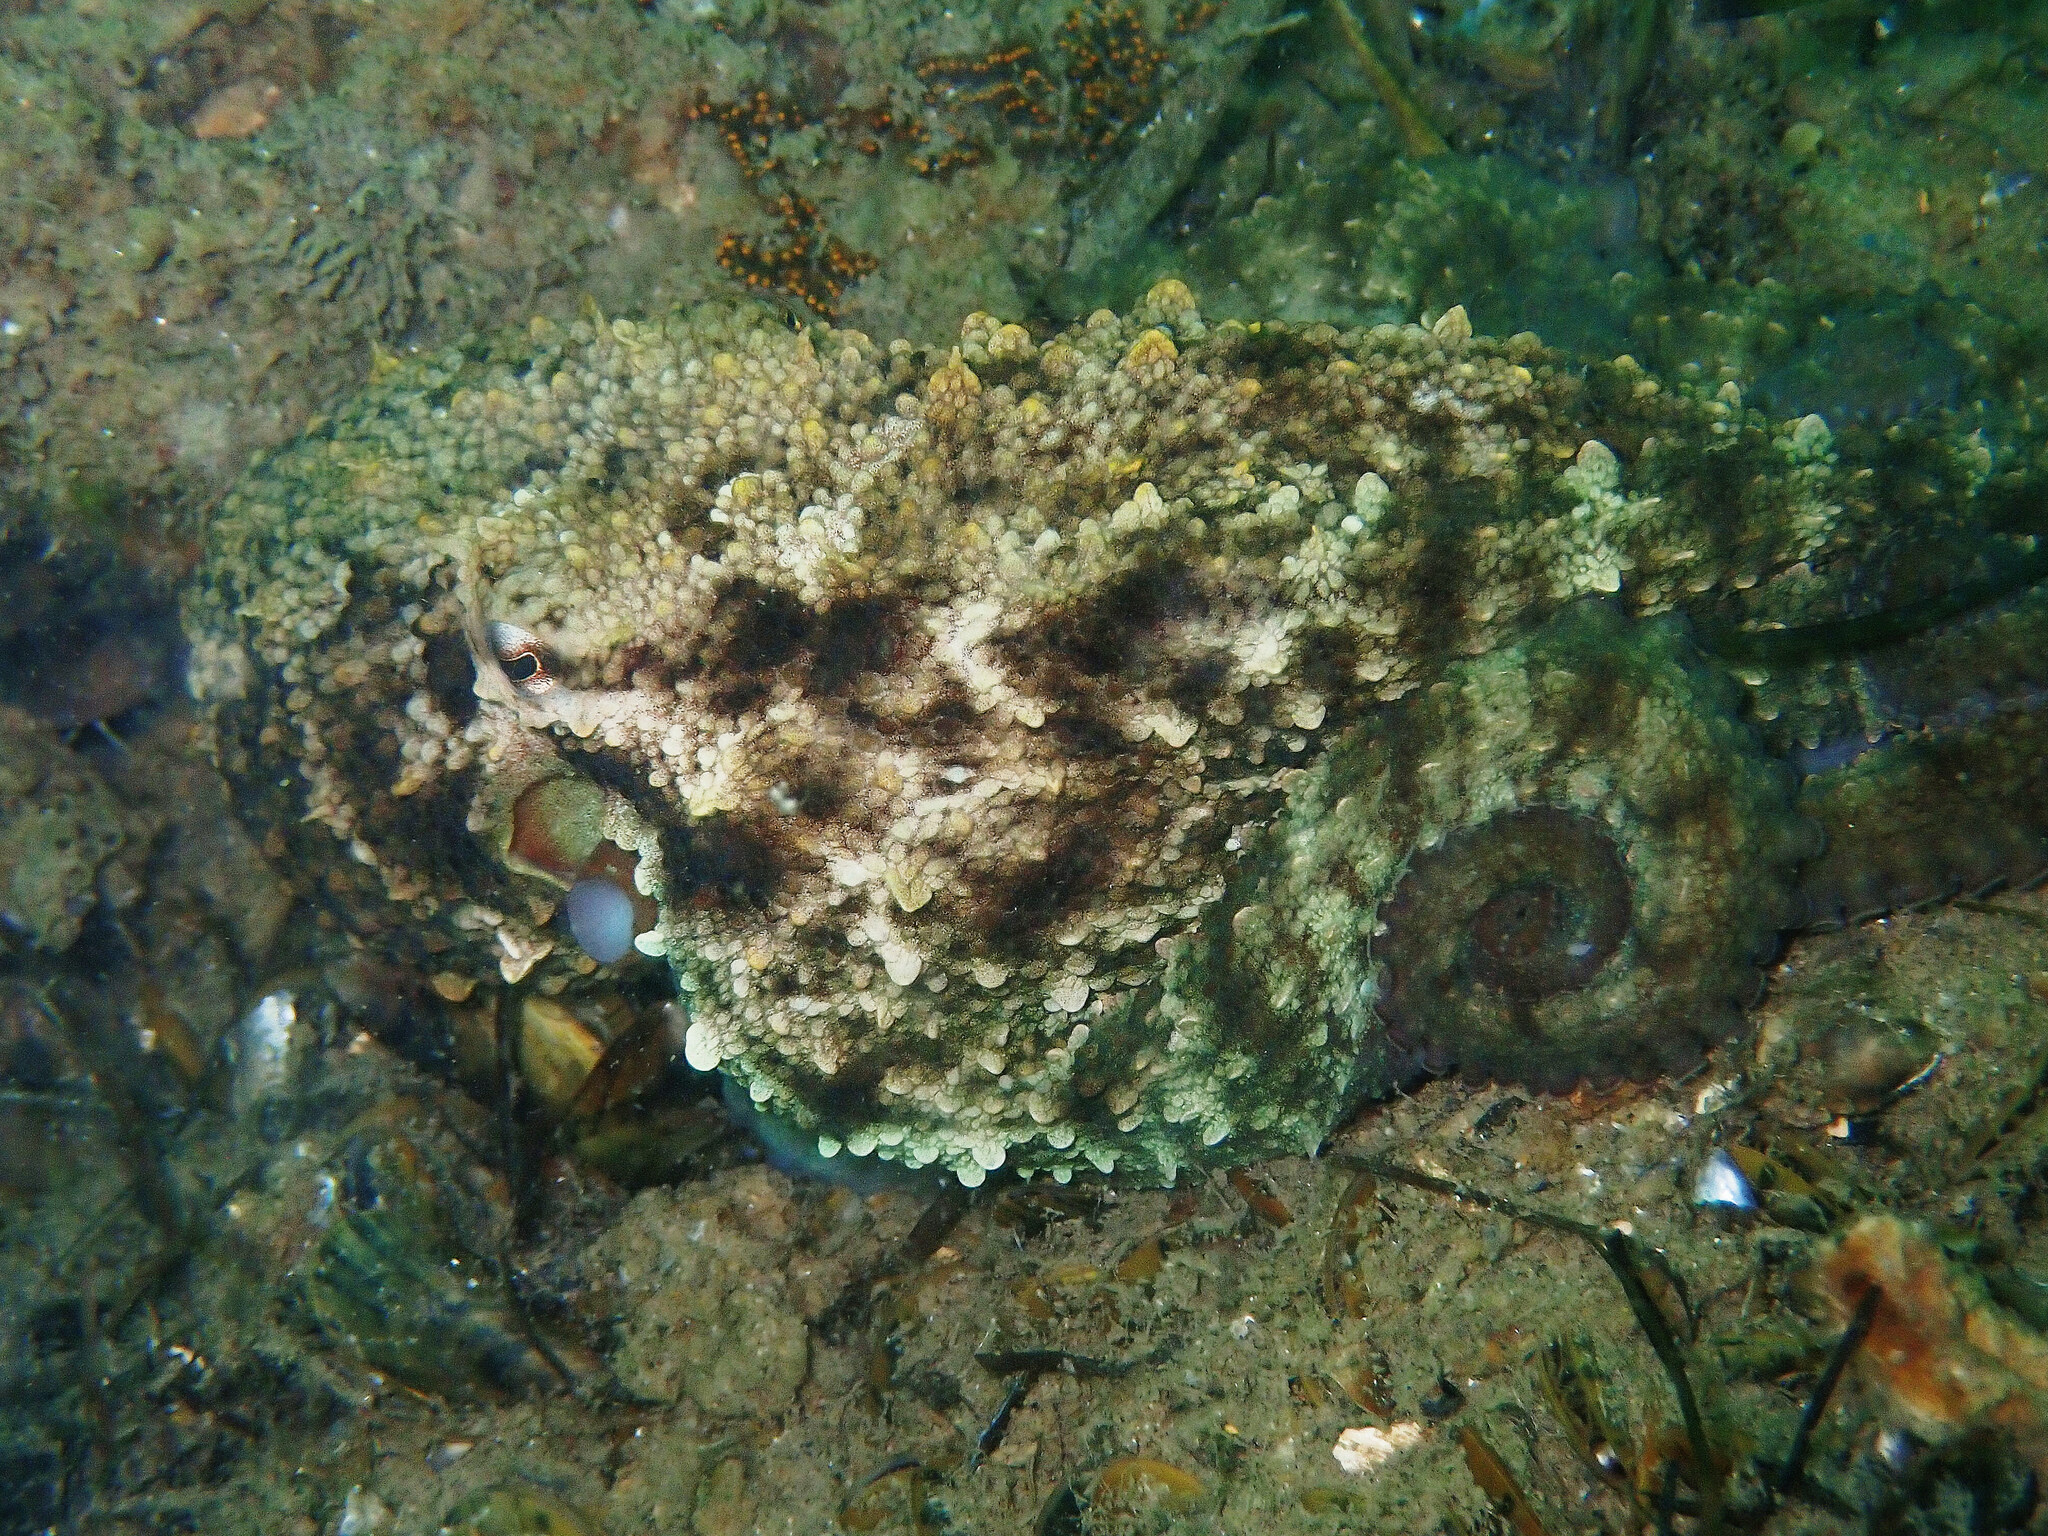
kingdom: Animalia
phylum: Mollusca
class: Cephalopoda
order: Octopoda
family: Octopodidae
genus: Octopus
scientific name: Octopus vulgaris
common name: Common octopus
